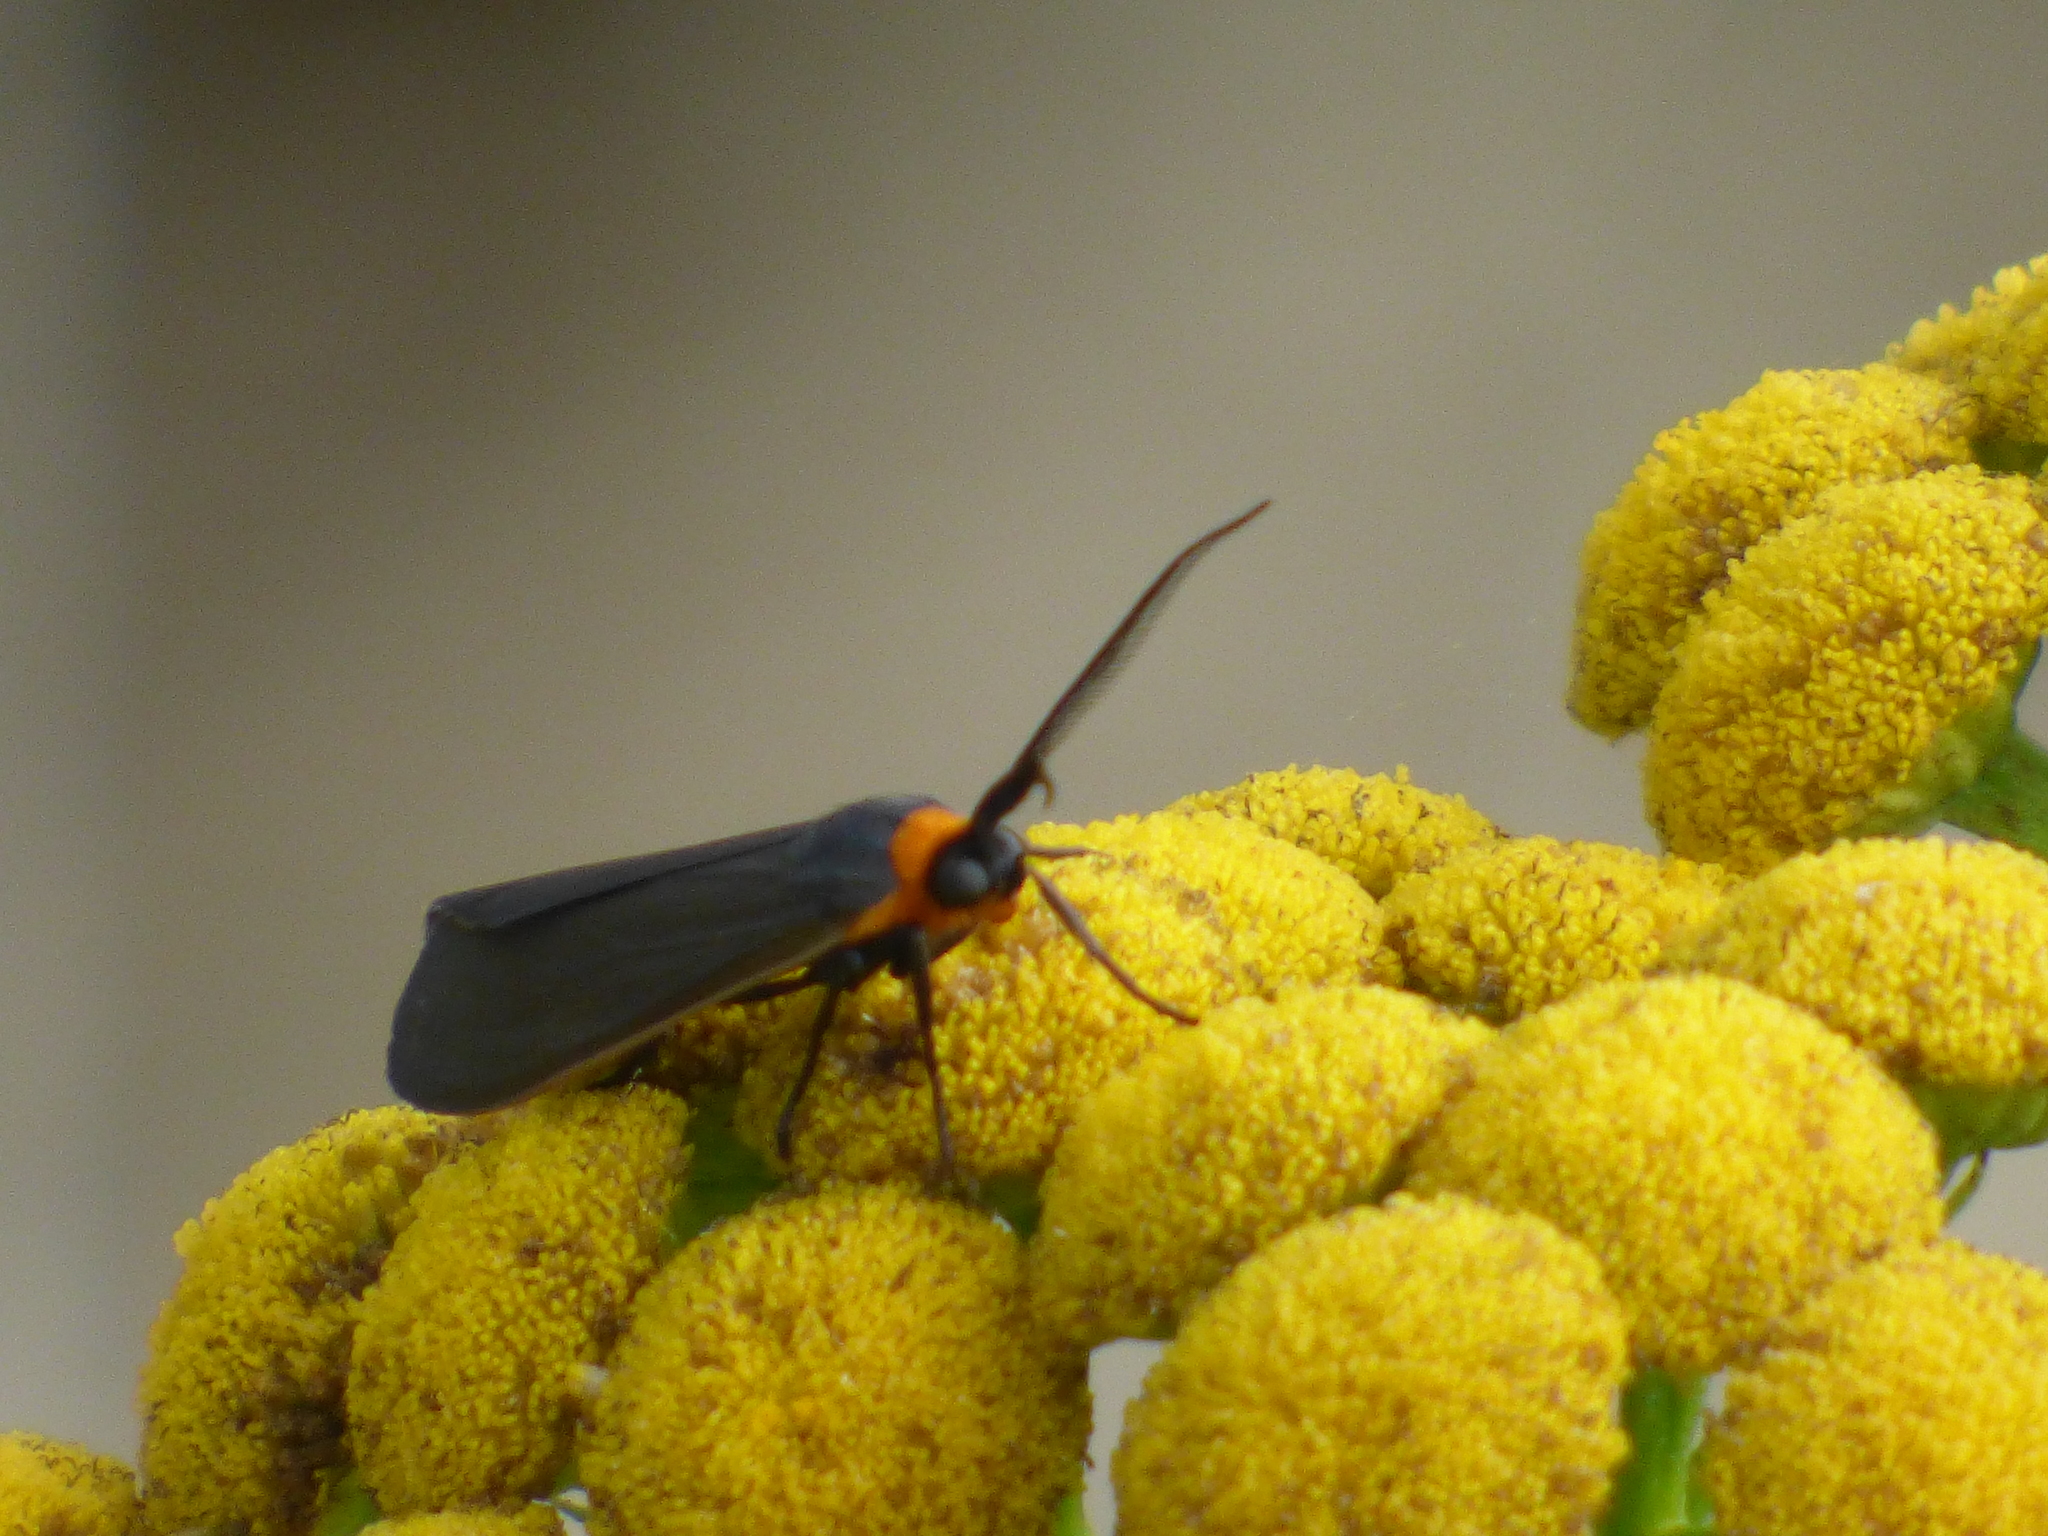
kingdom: Animalia
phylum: Arthropoda
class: Insecta
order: Lepidoptera
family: Erebidae
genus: Cisseps
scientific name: Cisseps fulvicollis
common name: Yellow-collared scape moth
